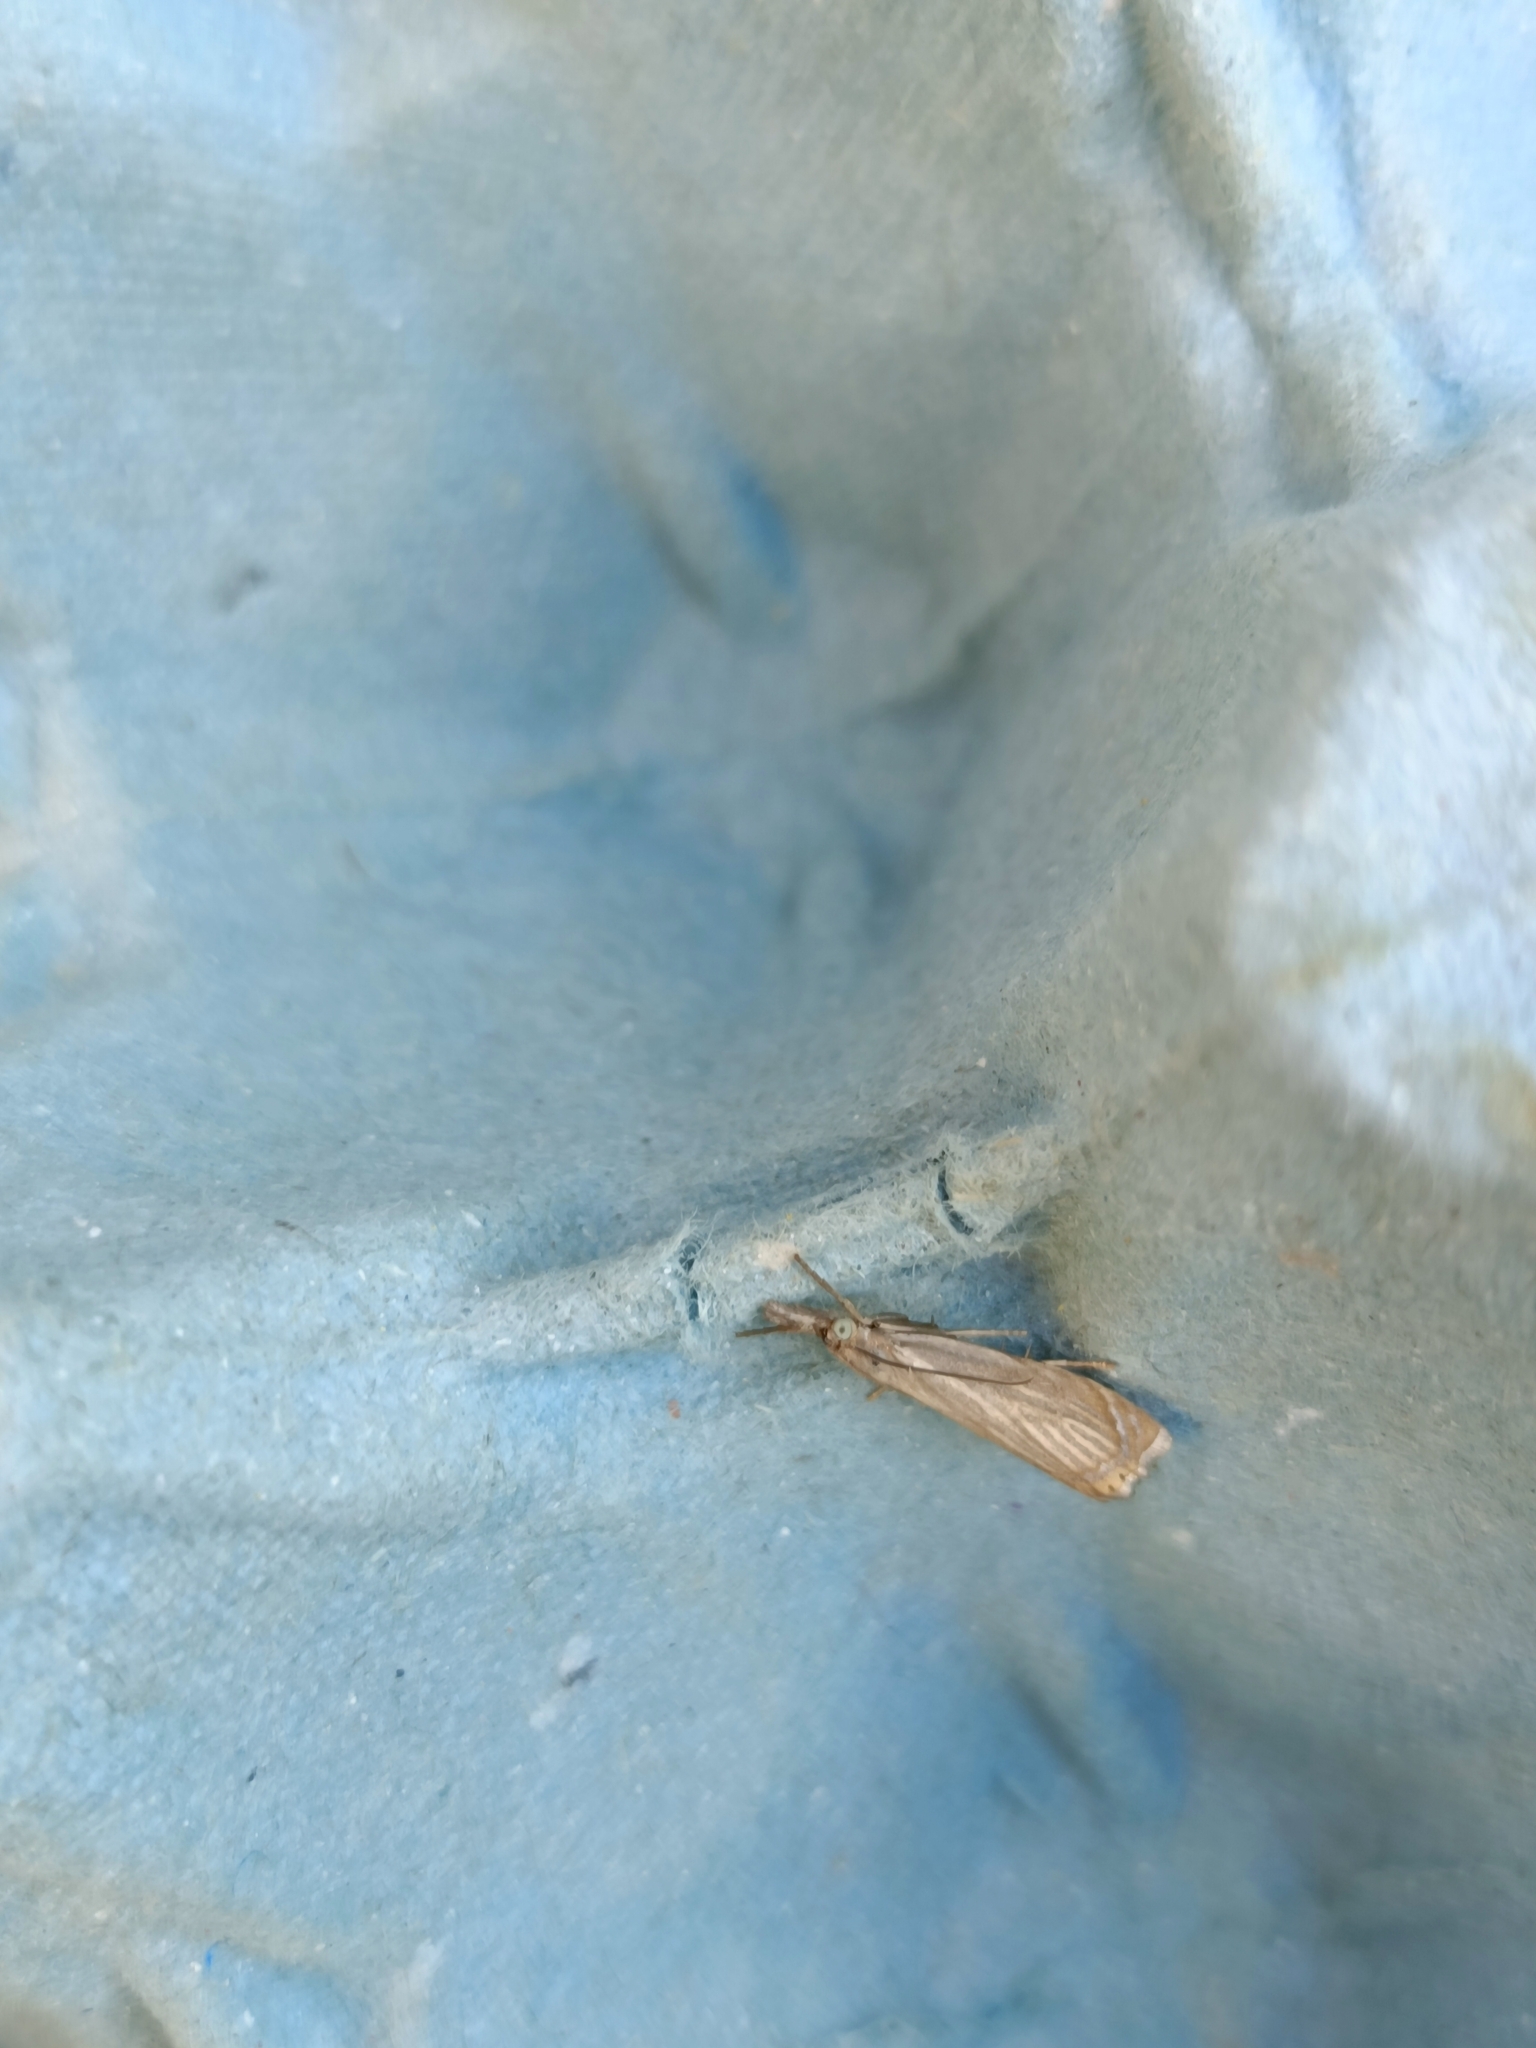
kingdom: Animalia
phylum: Arthropoda
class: Insecta
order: Lepidoptera
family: Crambidae
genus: Chrysoteuchia
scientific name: Chrysoteuchia culmella
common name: Garden grass-veneer
